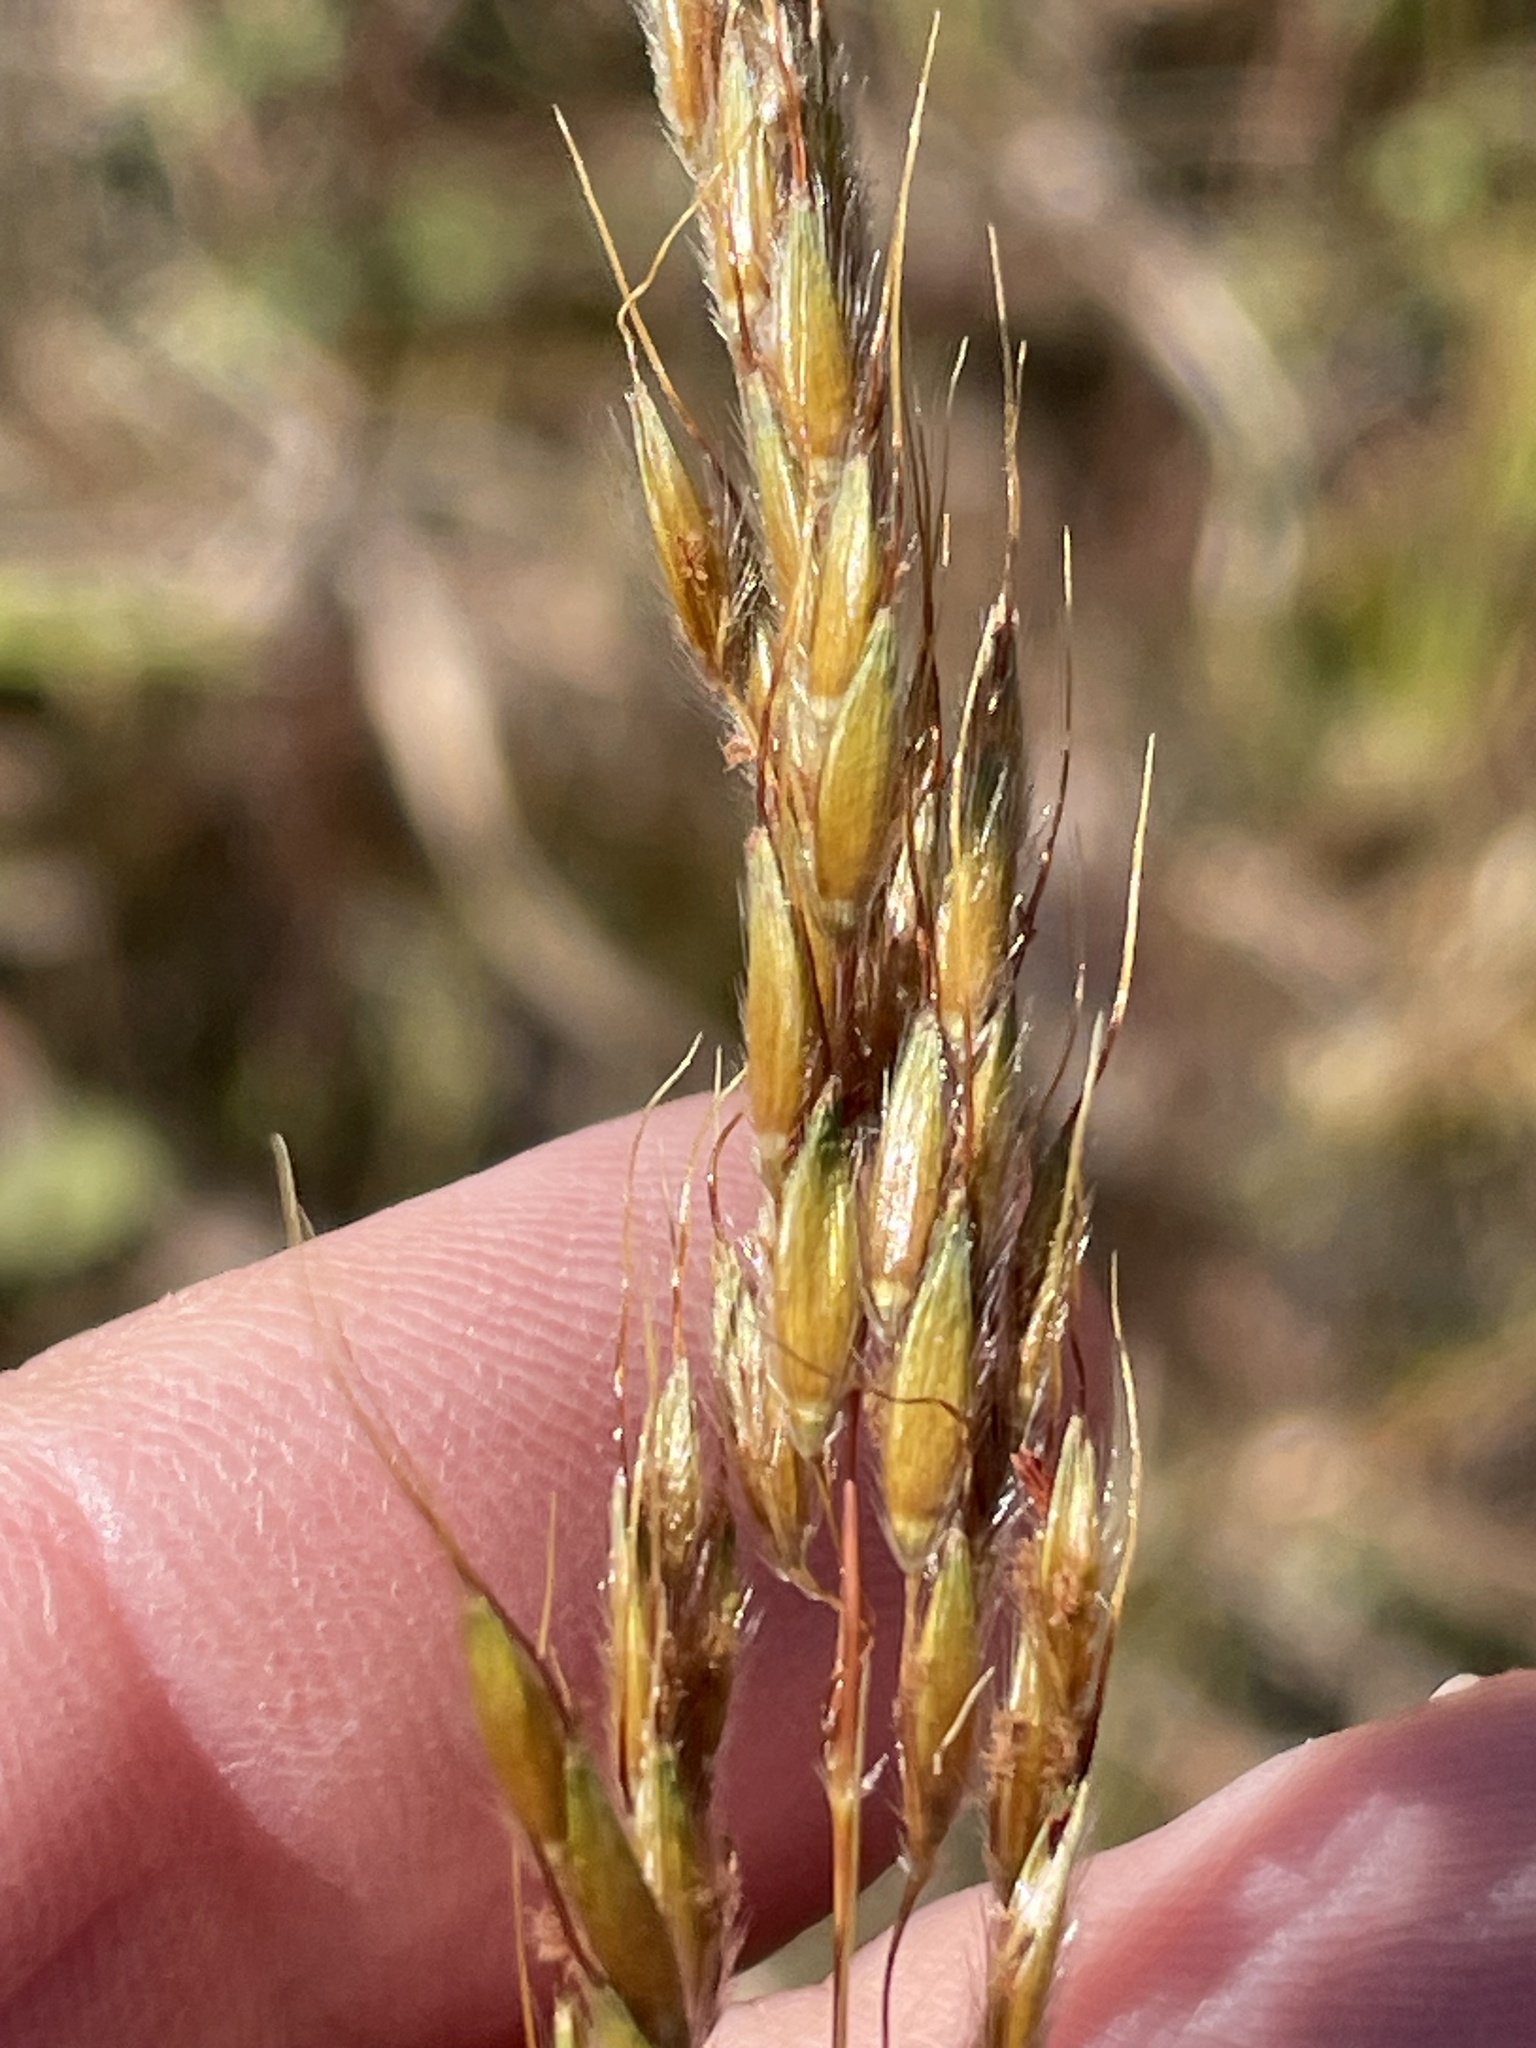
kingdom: Plantae
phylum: Tracheophyta
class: Liliopsida
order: Poales
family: Poaceae
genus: Sorghastrum
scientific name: Sorghastrum nutans
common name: Indian grass
